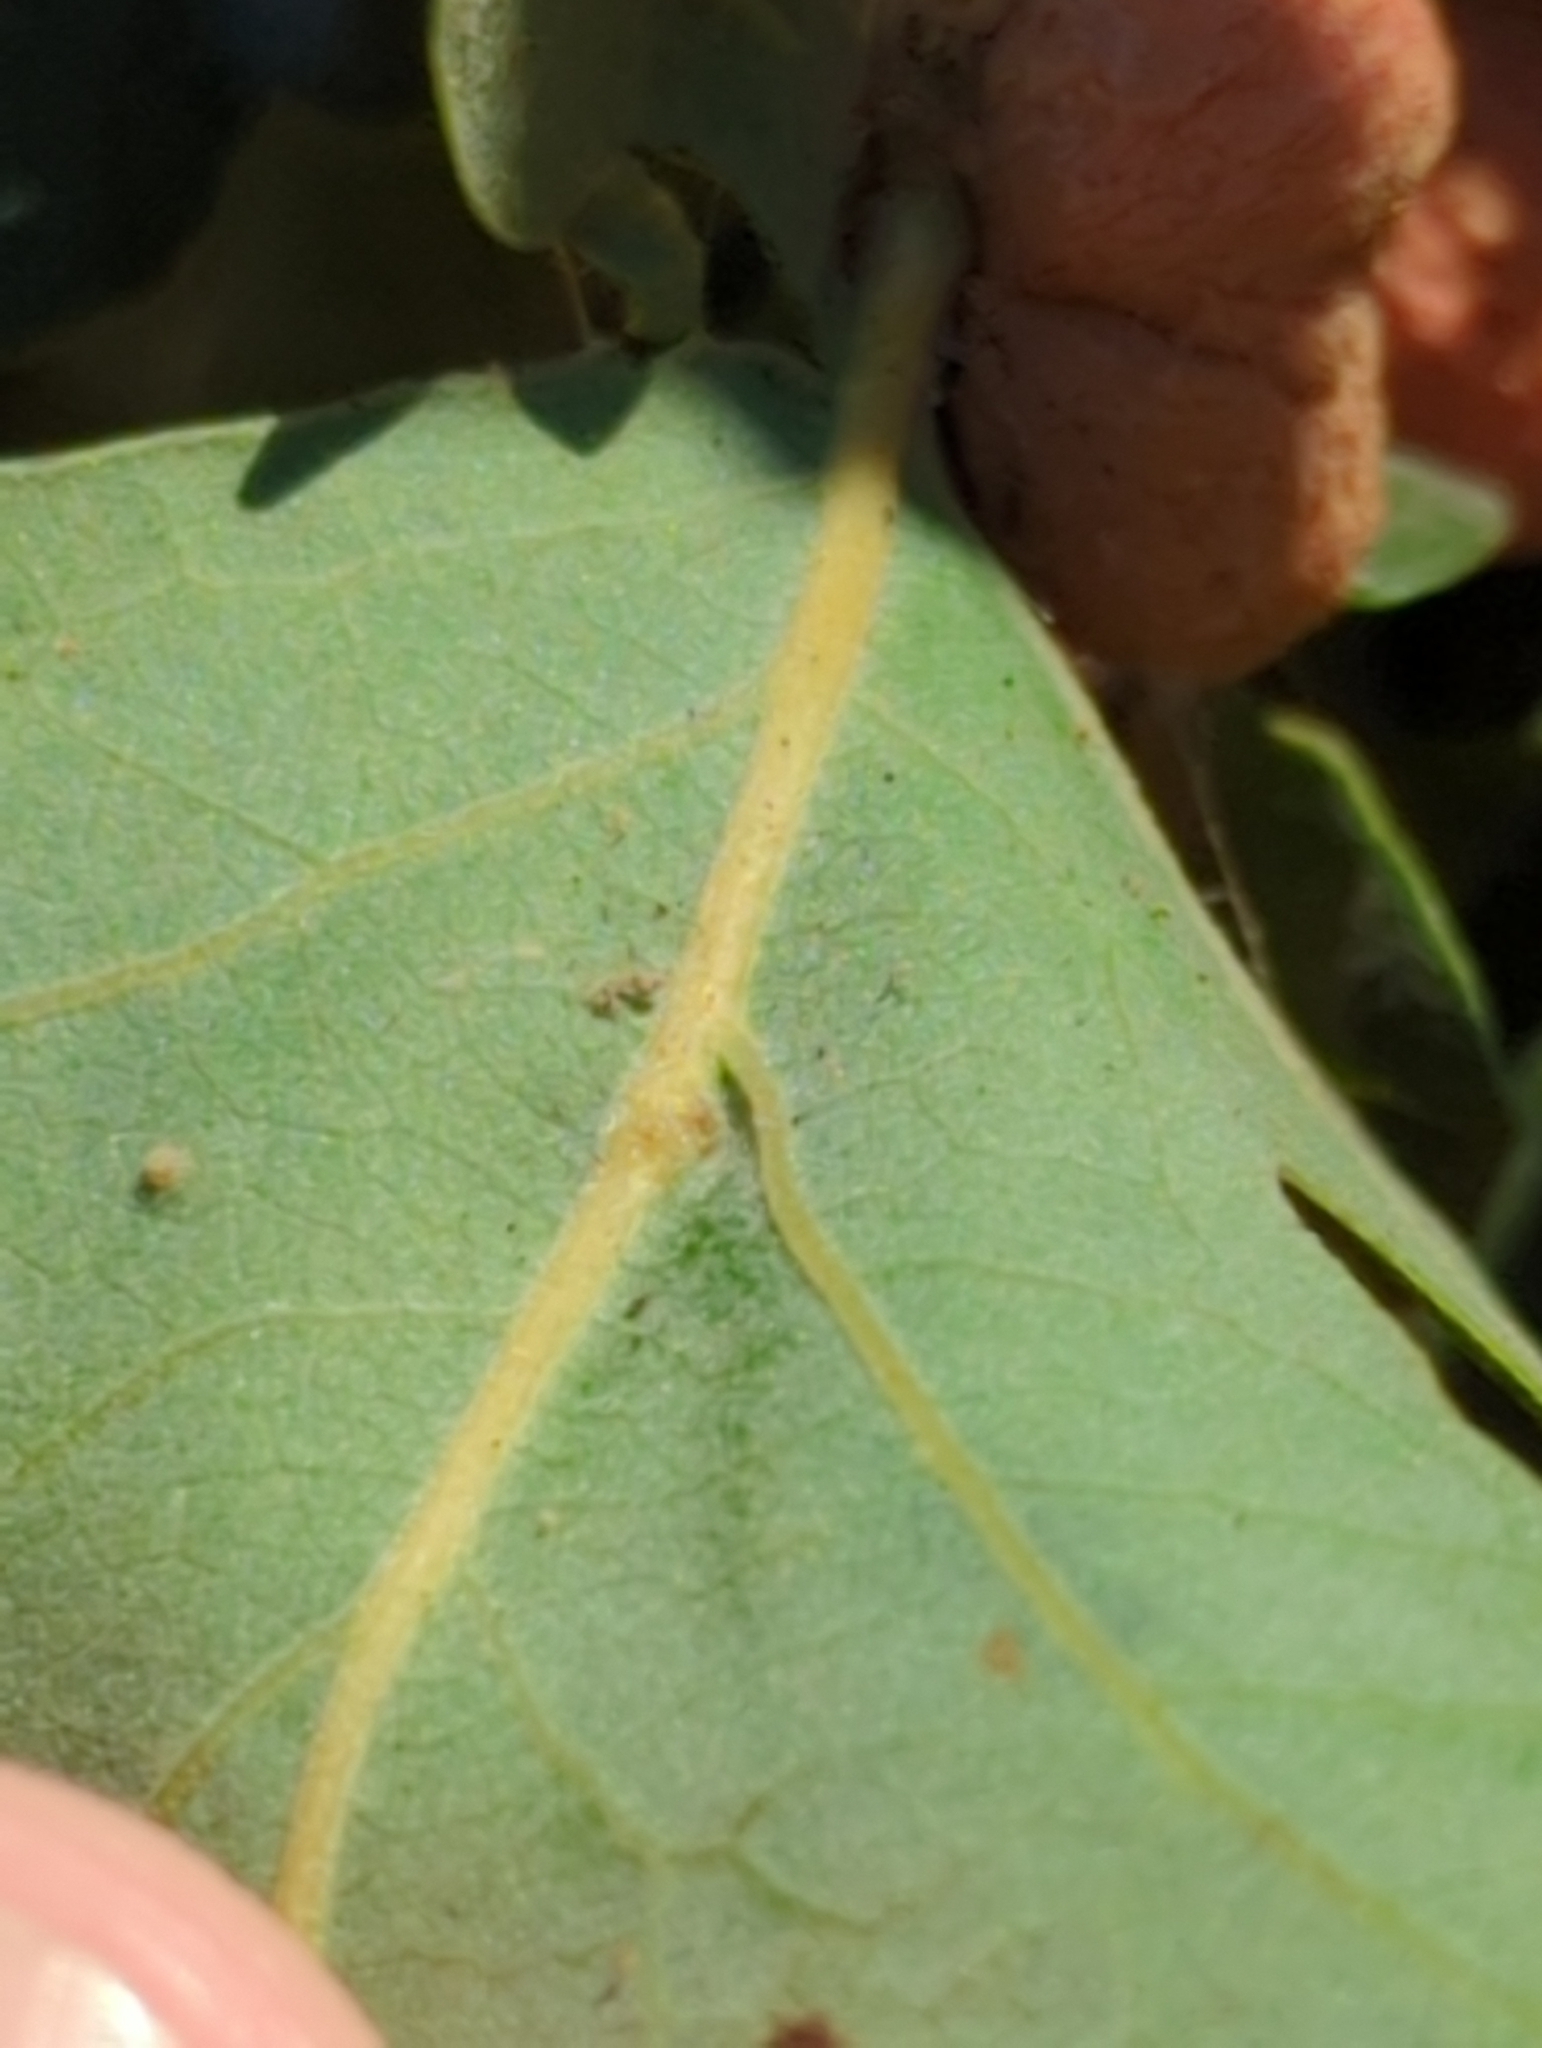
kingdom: Animalia
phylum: Arthropoda
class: Insecta
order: Hymenoptera
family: Cynipidae
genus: Cynips
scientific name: Cynips conspicua
